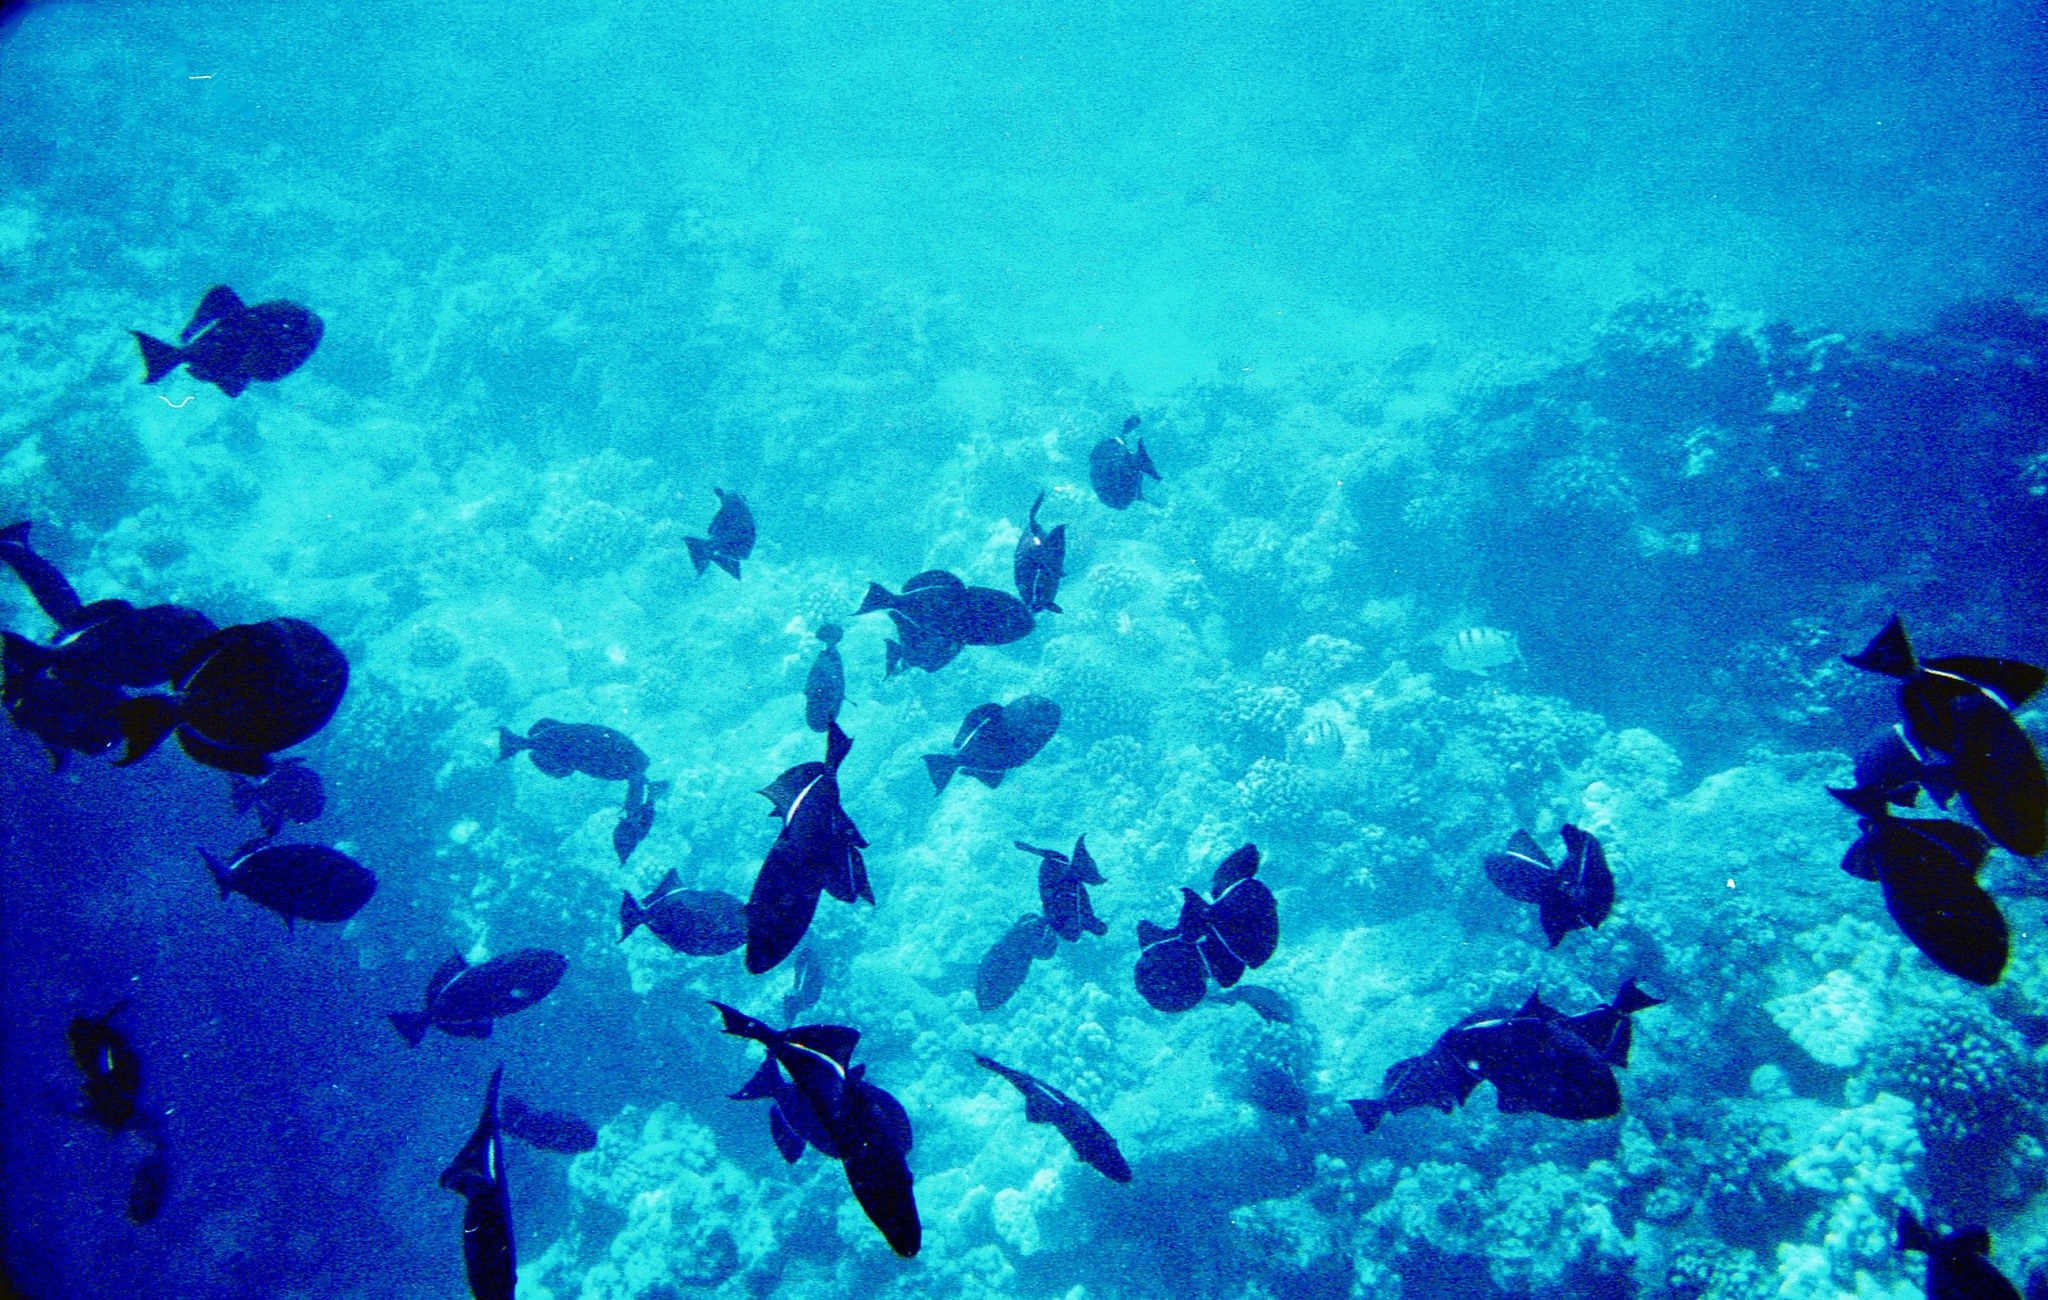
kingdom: Animalia
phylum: Chordata
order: Tetraodontiformes
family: Balistidae
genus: Melichthys
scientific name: Melichthys niger
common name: Black durgon
